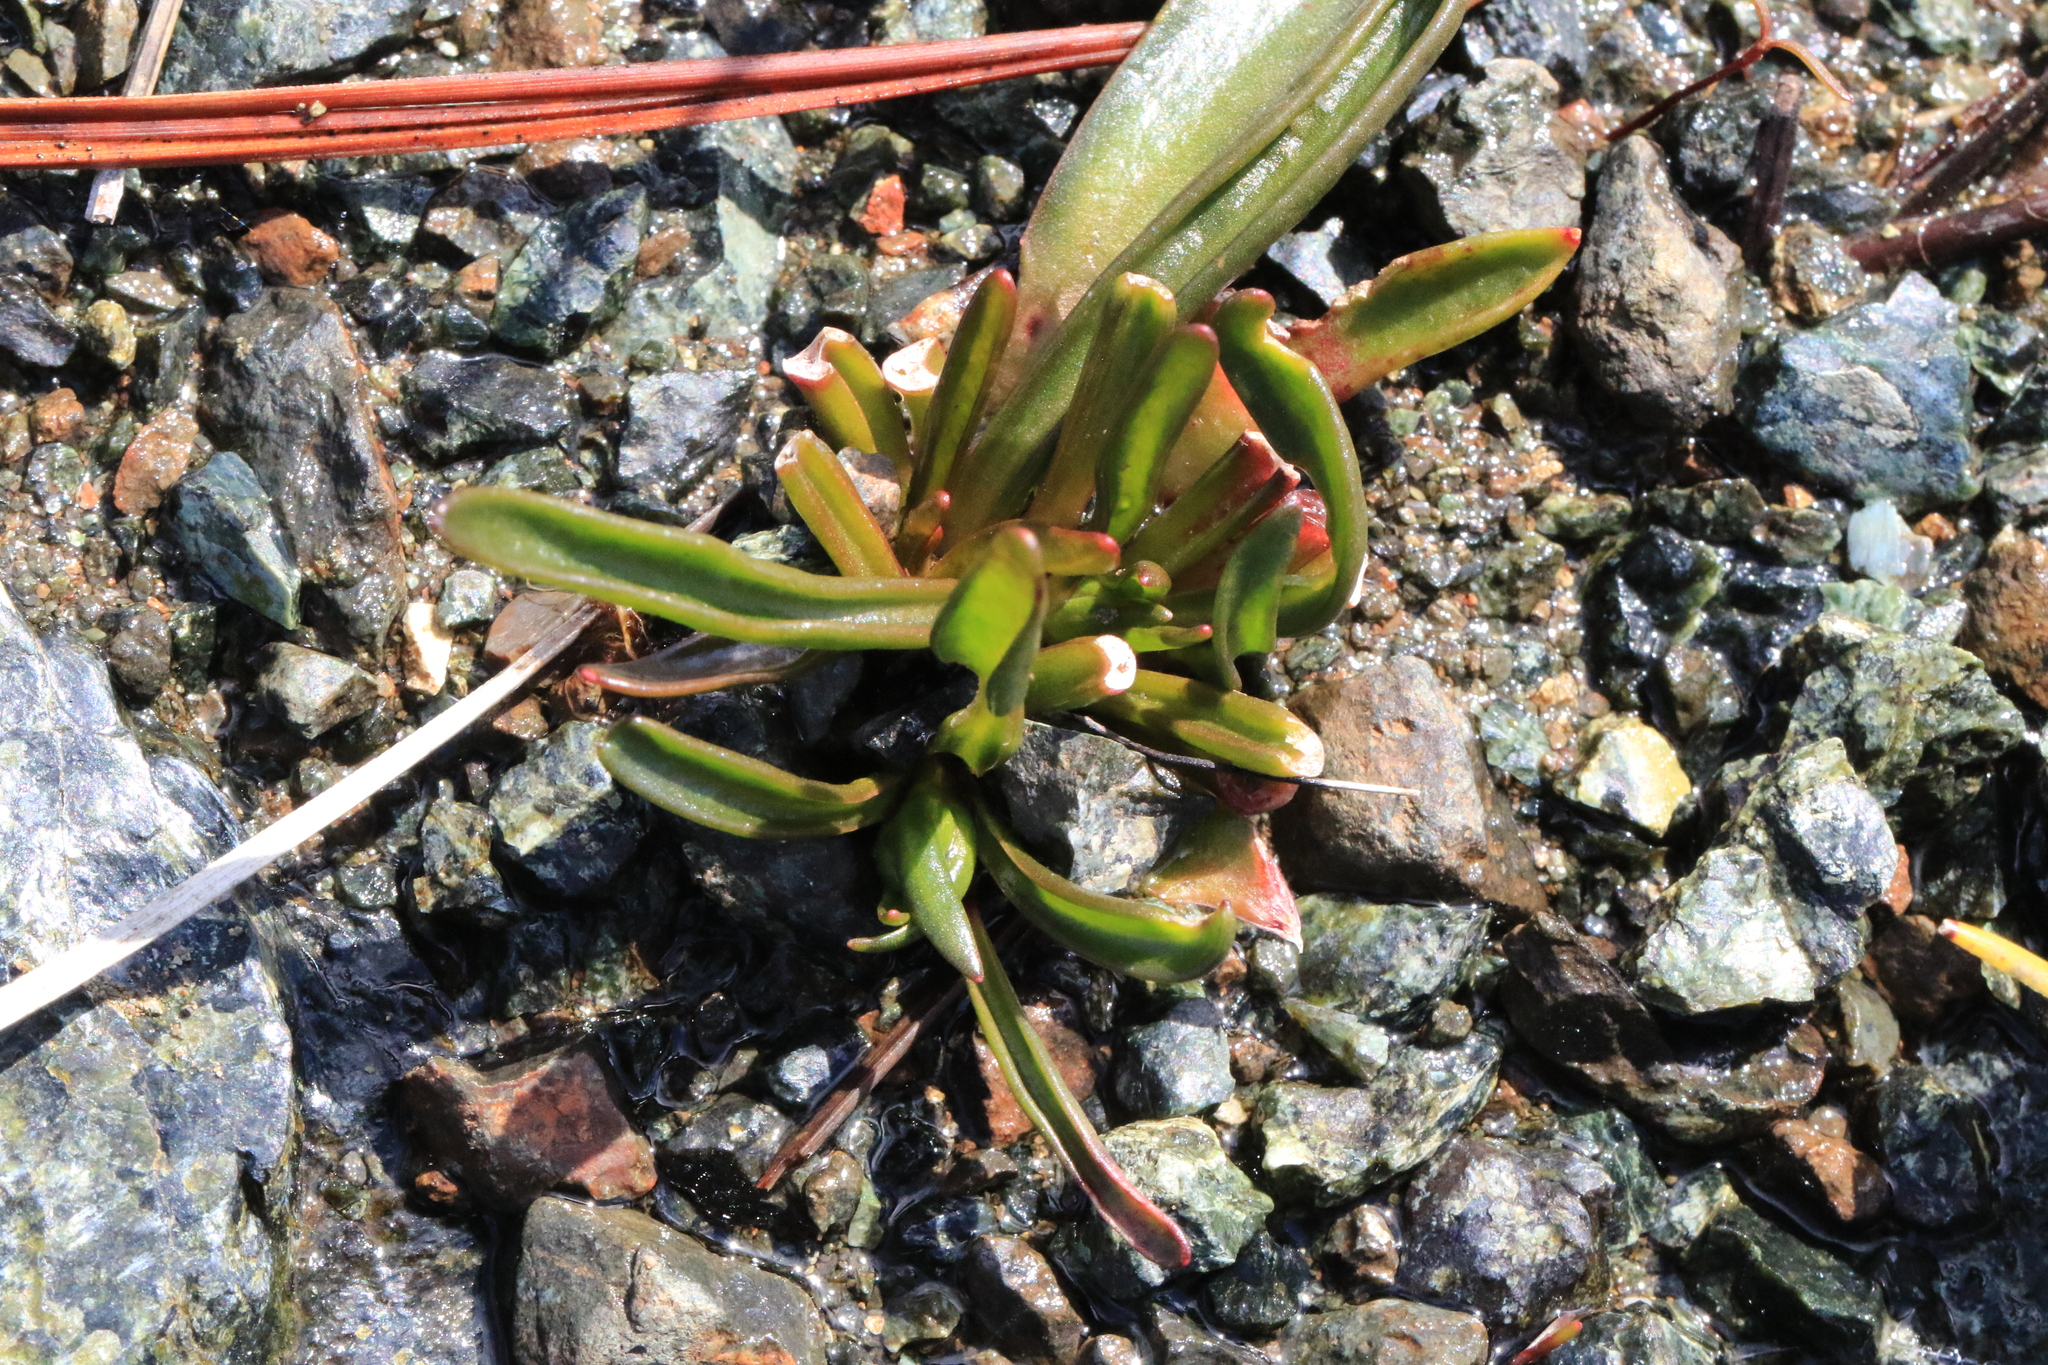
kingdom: Plantae
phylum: Tracheophyta
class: Magnoliopsida
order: Caryophyllales
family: Montiaceae
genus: Lewisia
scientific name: Lewisia oppositifolia
